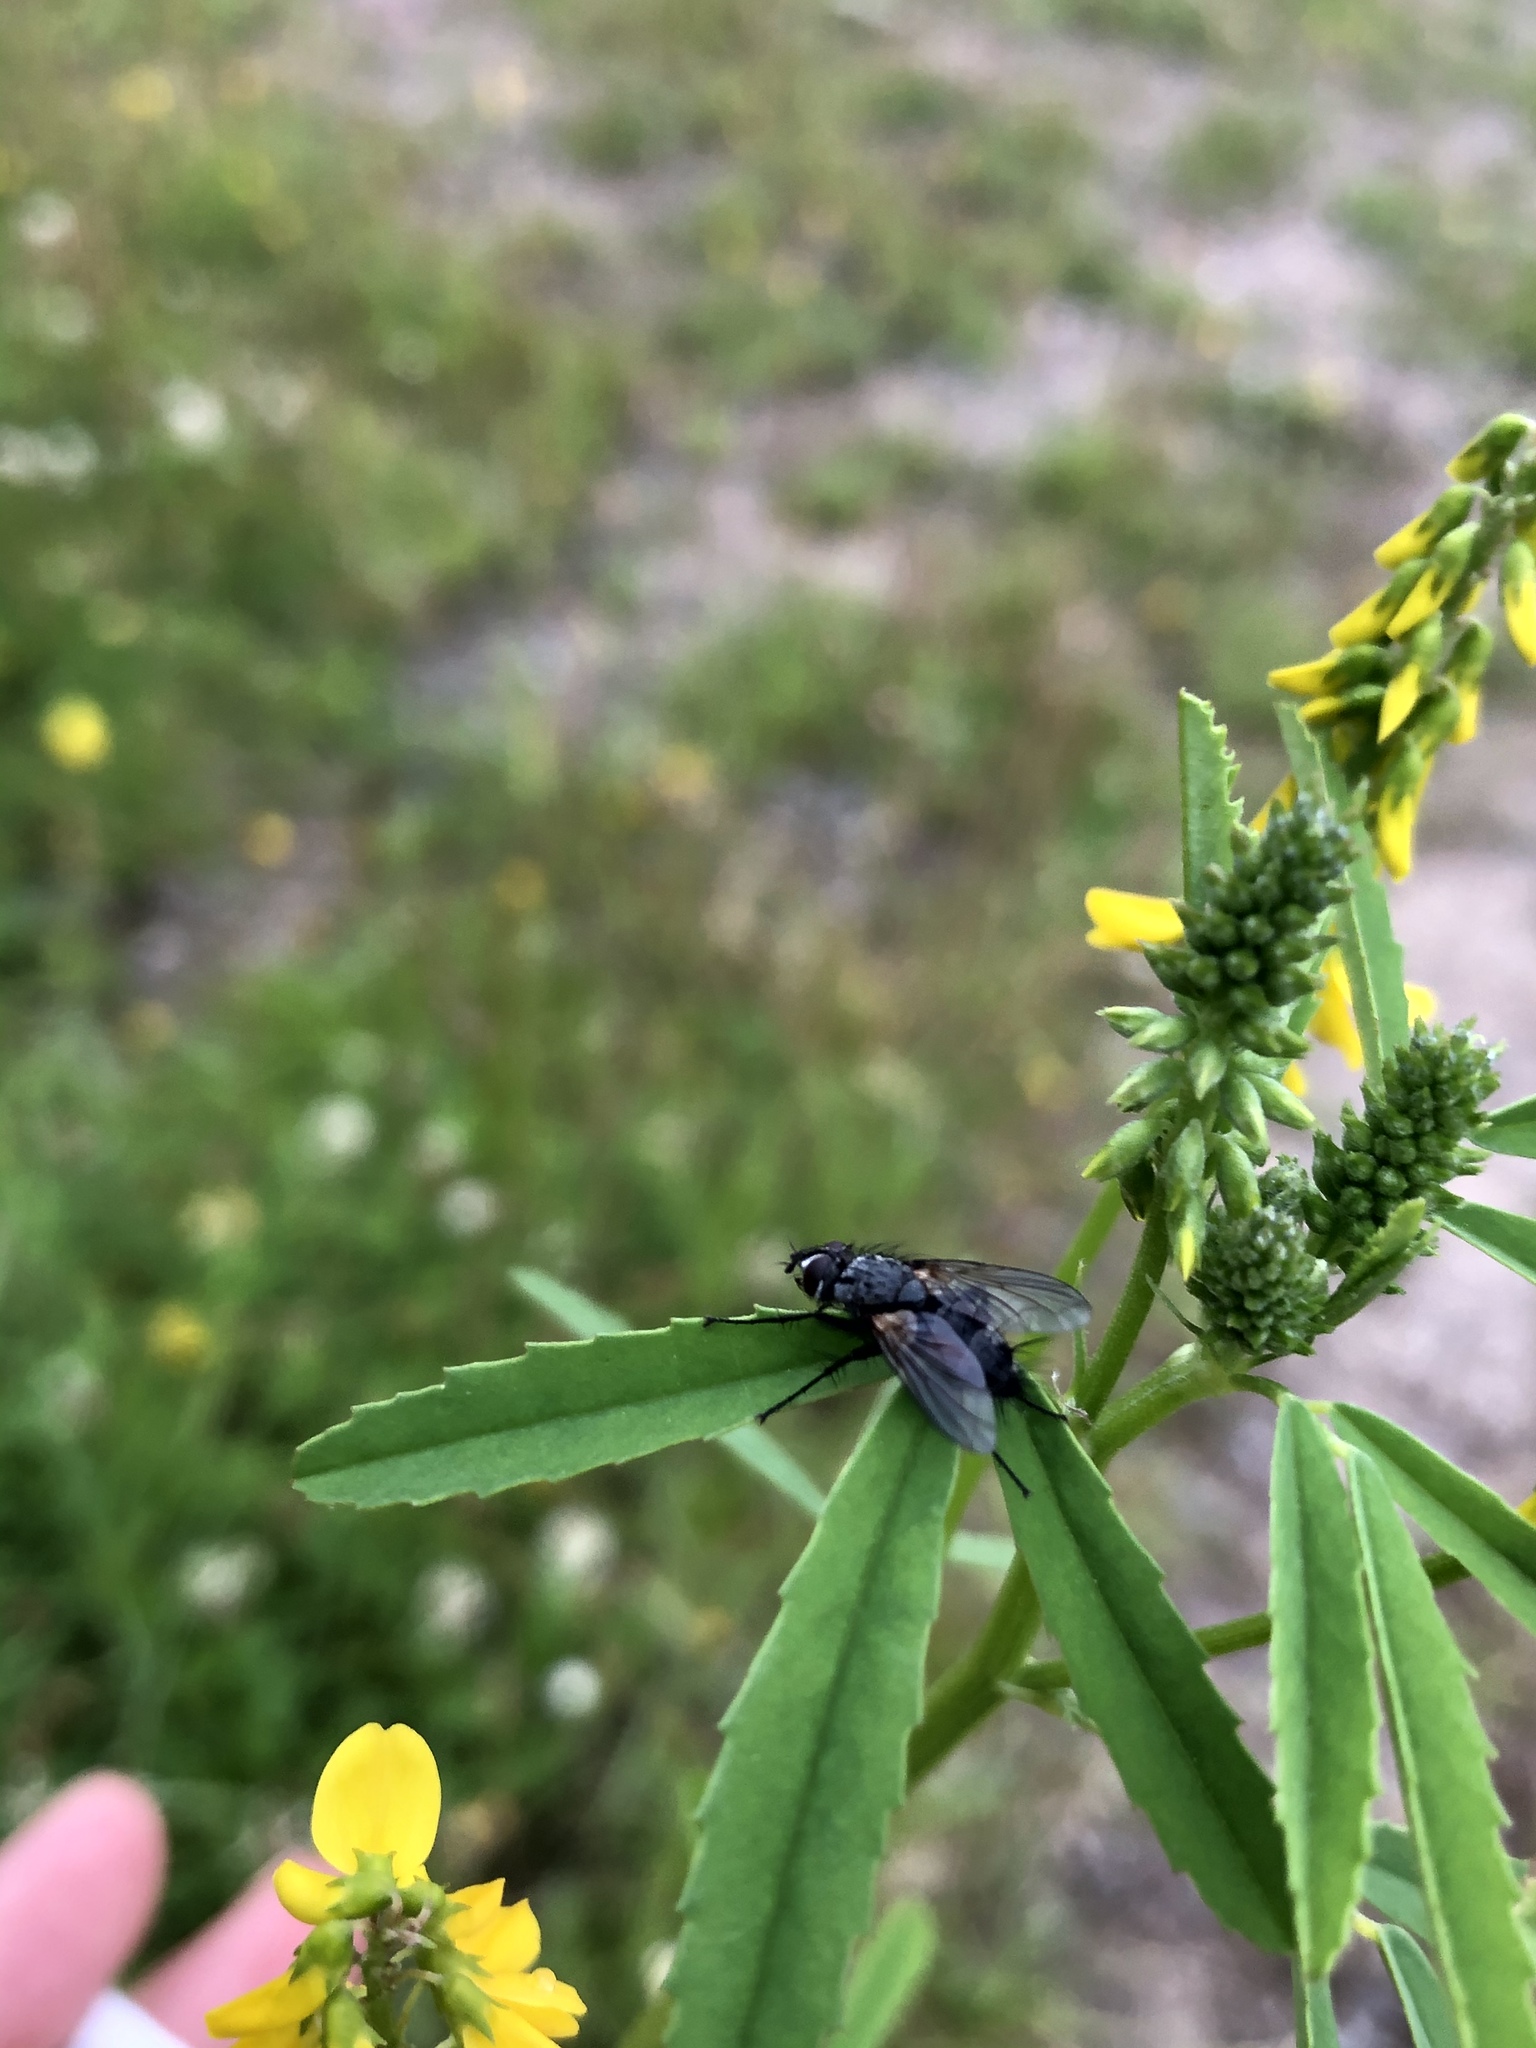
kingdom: Animalia
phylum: Arthropoda
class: Insecta
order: Diptera
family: Tachinidae
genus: Eriothrix
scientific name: Eriothrix rufomaculatus
